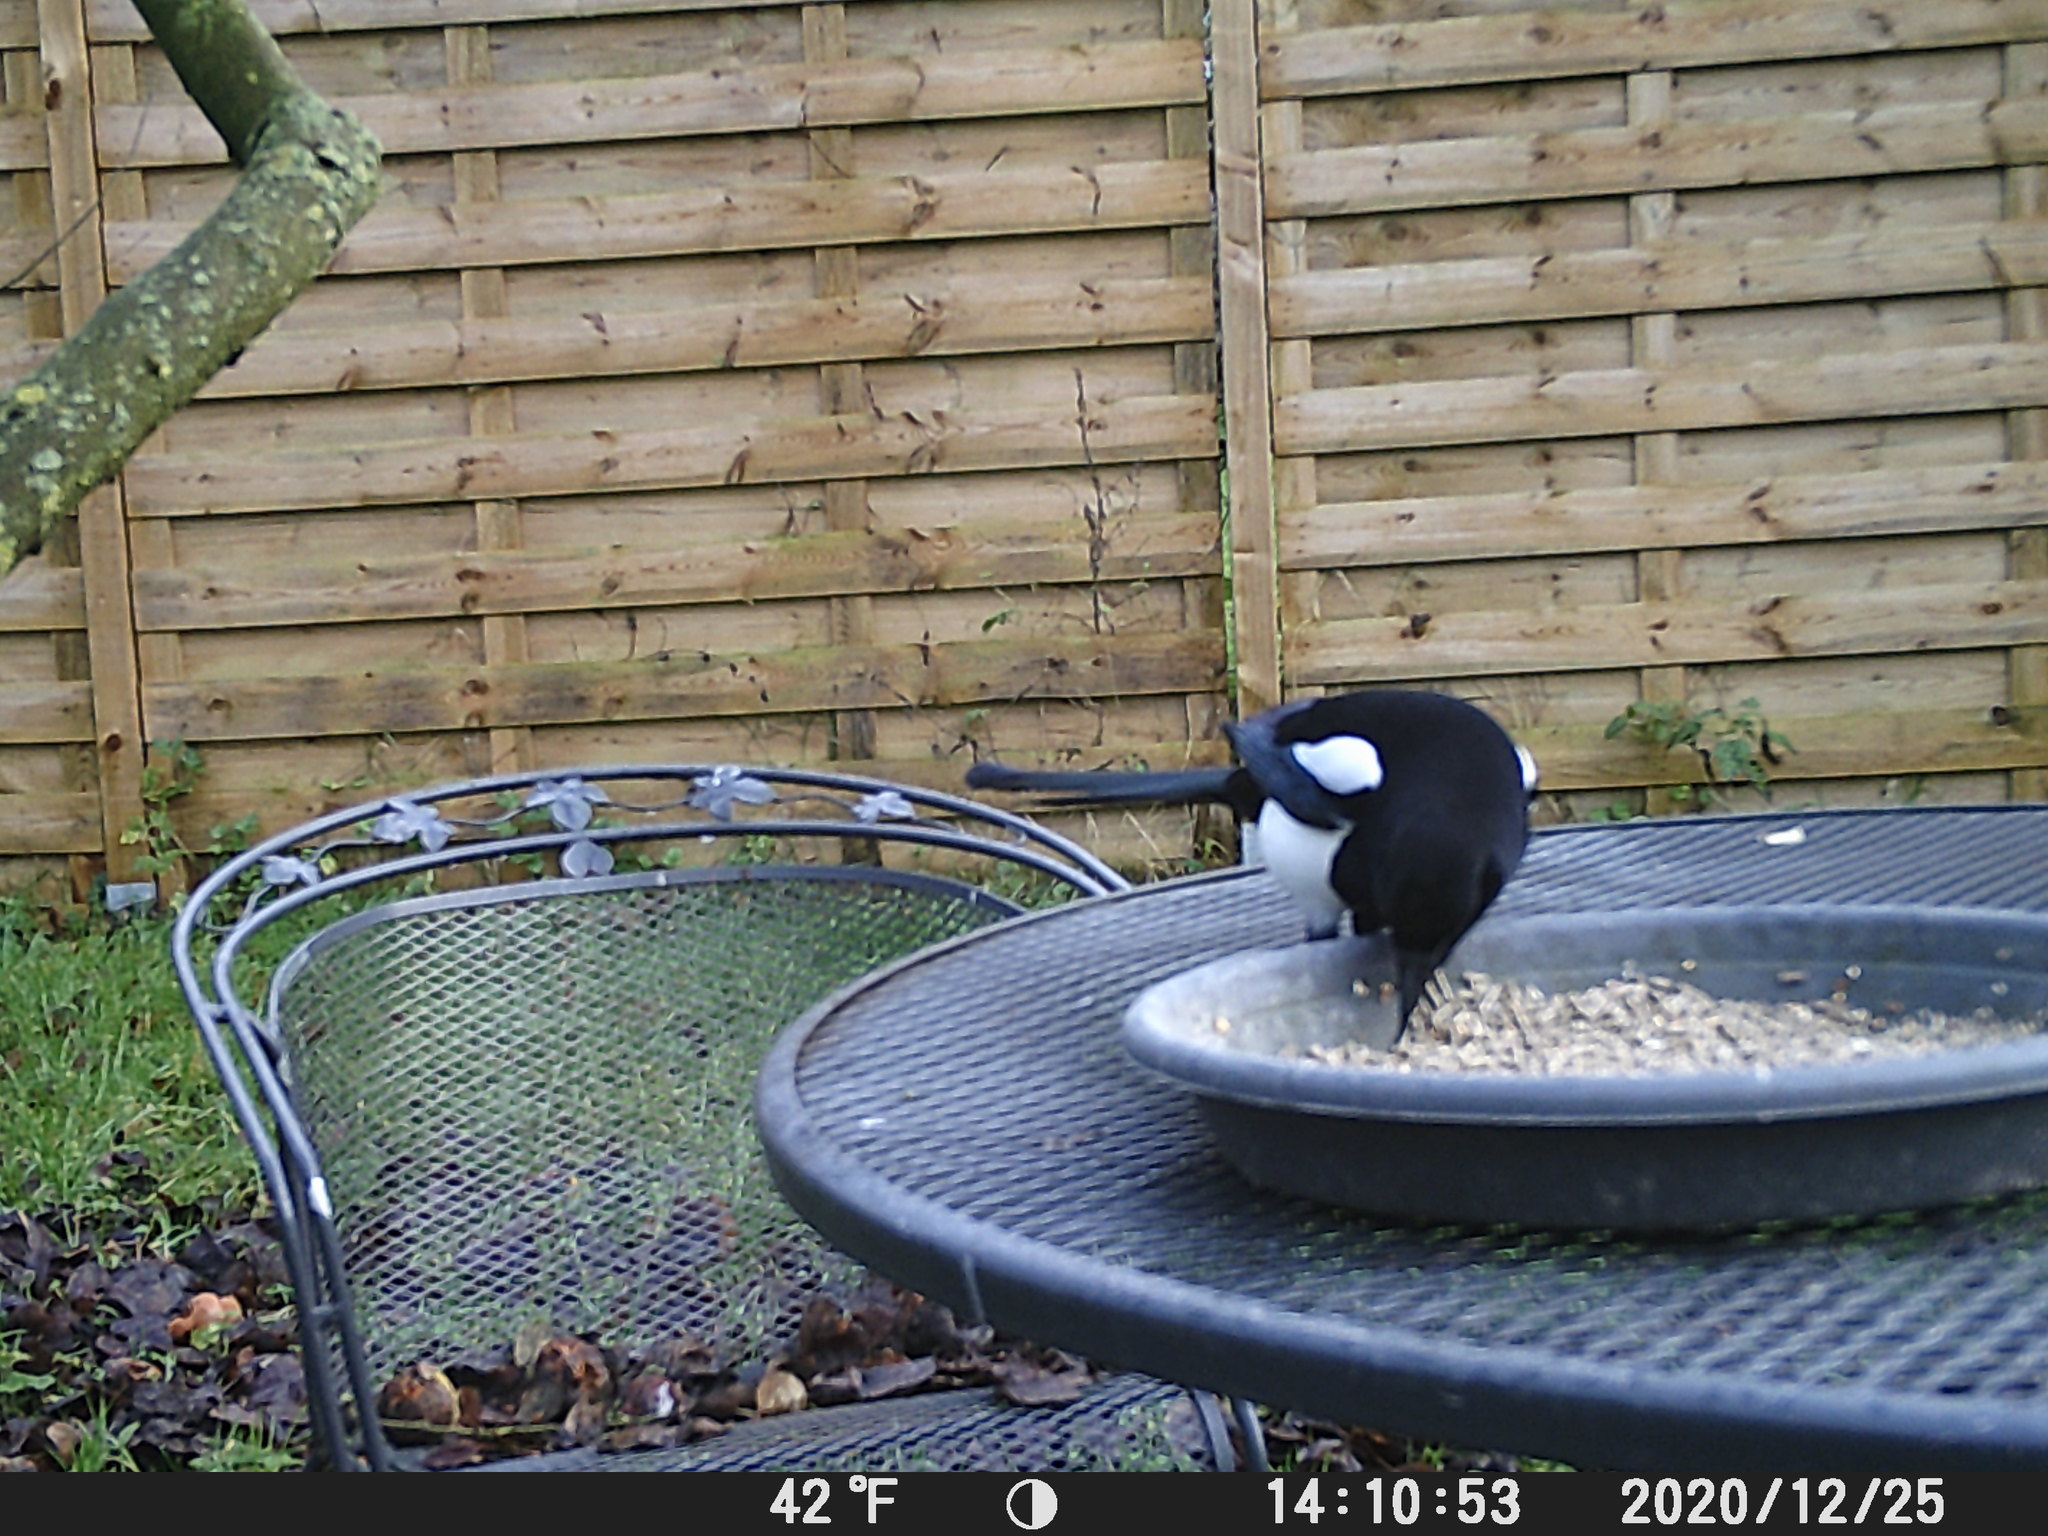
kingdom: Animalia
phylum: Chordata
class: Aves
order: Passeriformes
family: Corvidae
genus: Pica
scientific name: Pica pica
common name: Eurasian magpie
